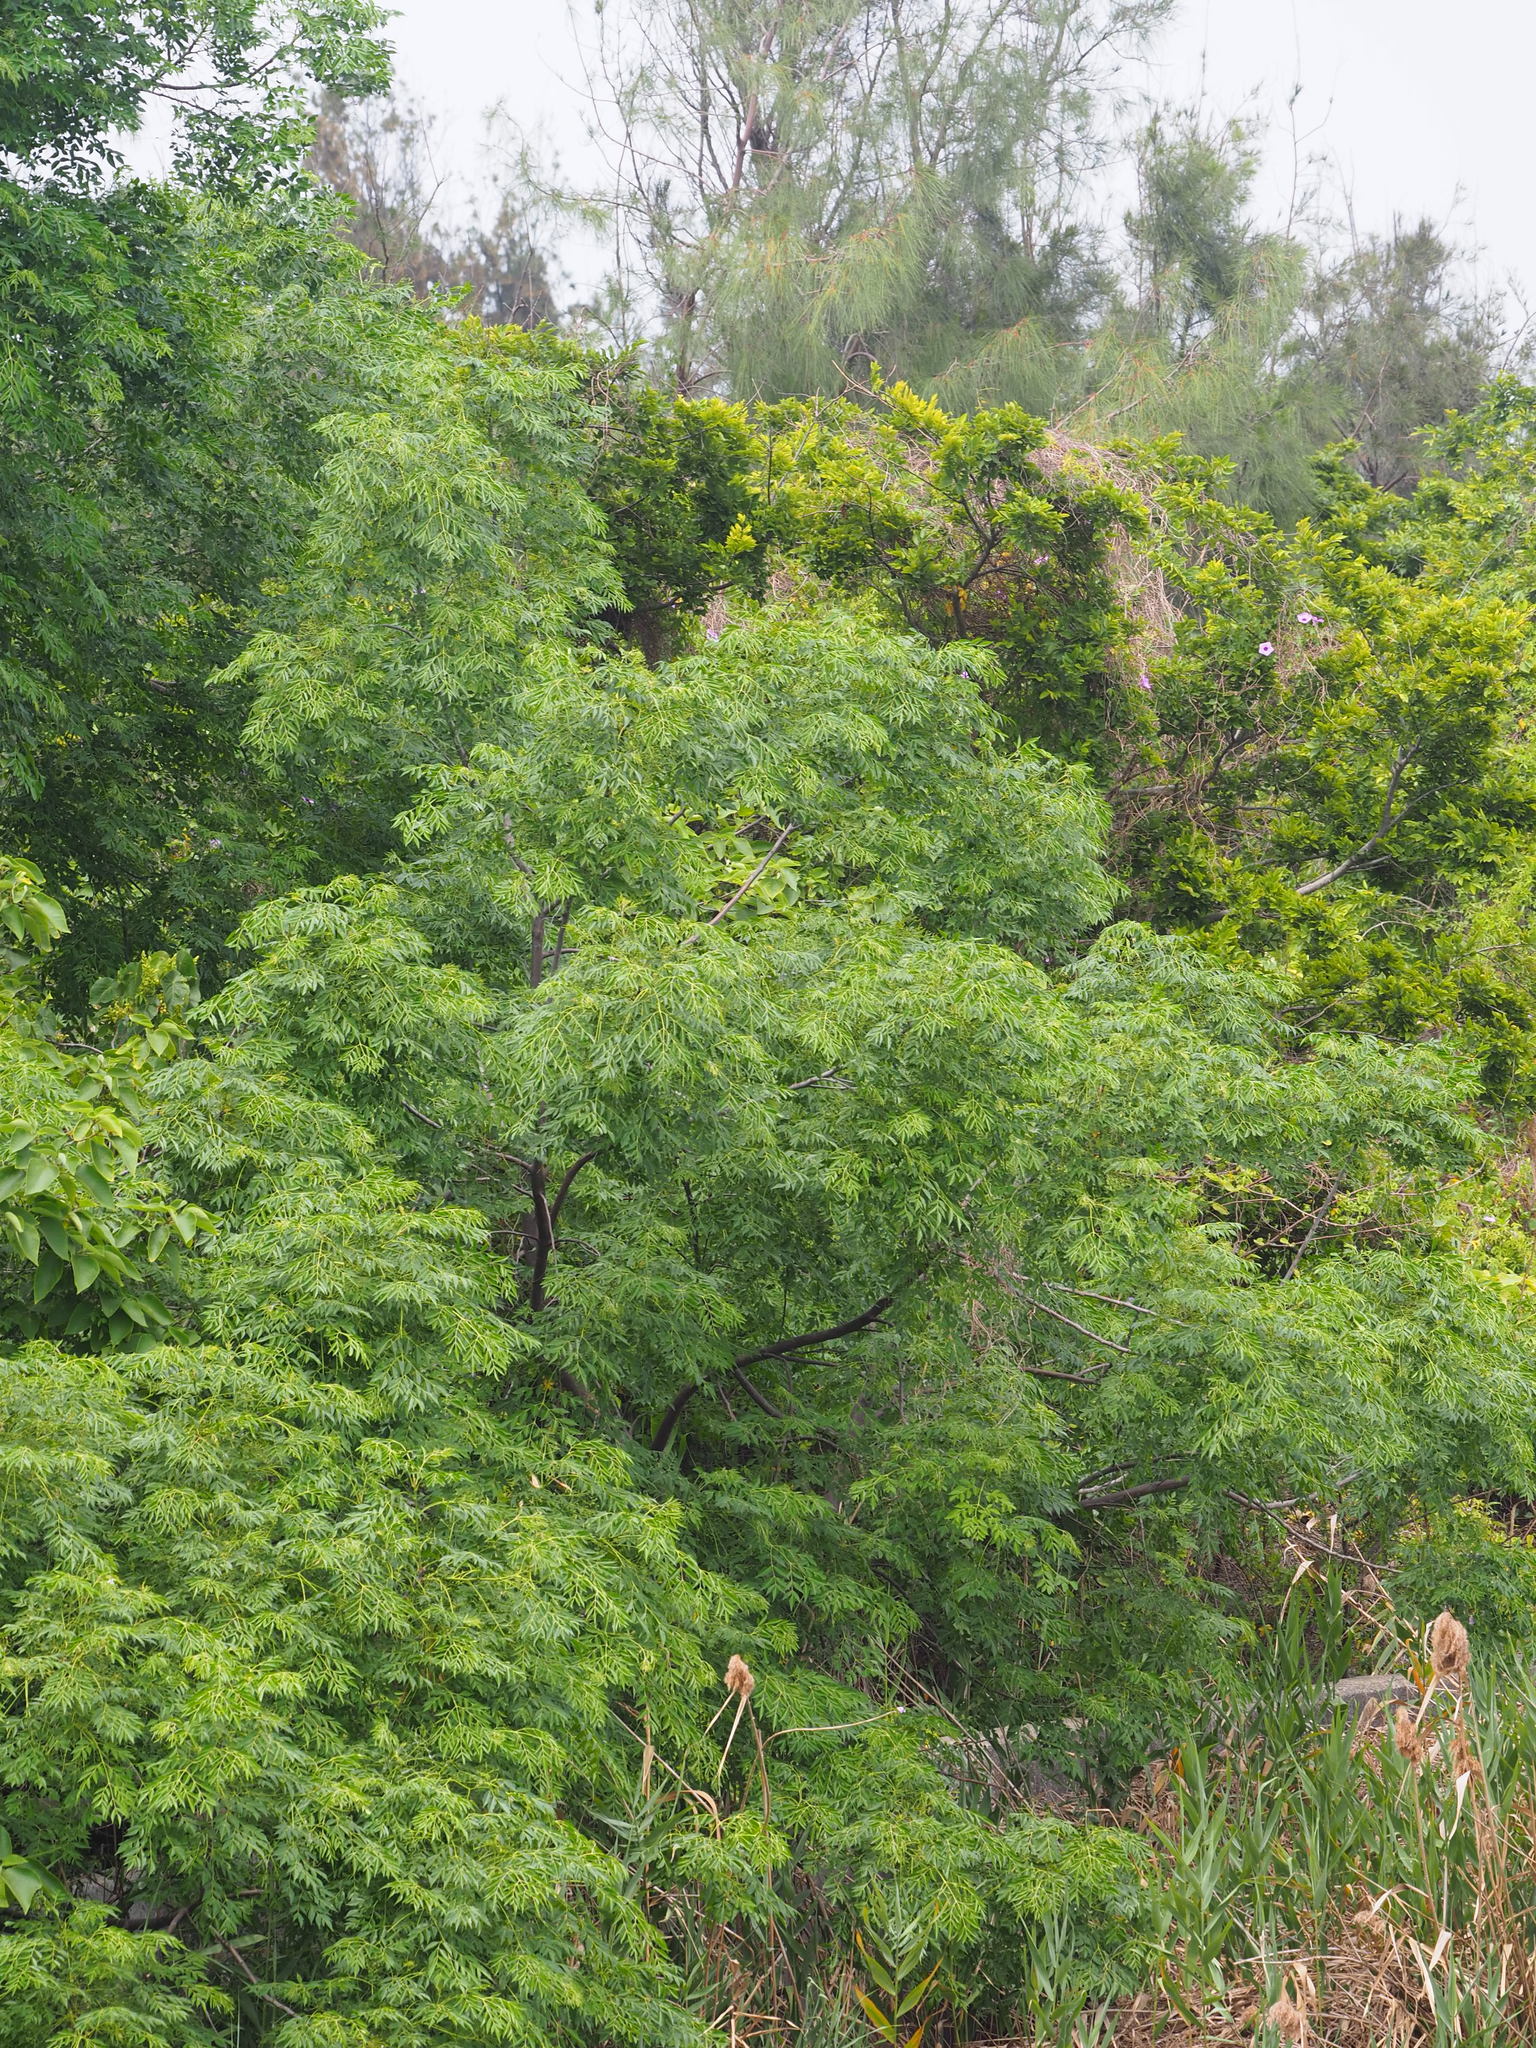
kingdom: Plantae
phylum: Tracheophyta
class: Magnoliopsida
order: Sapindales
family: Meliaceae
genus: Melia
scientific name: Melia azedarach
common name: Chinaberrytree
